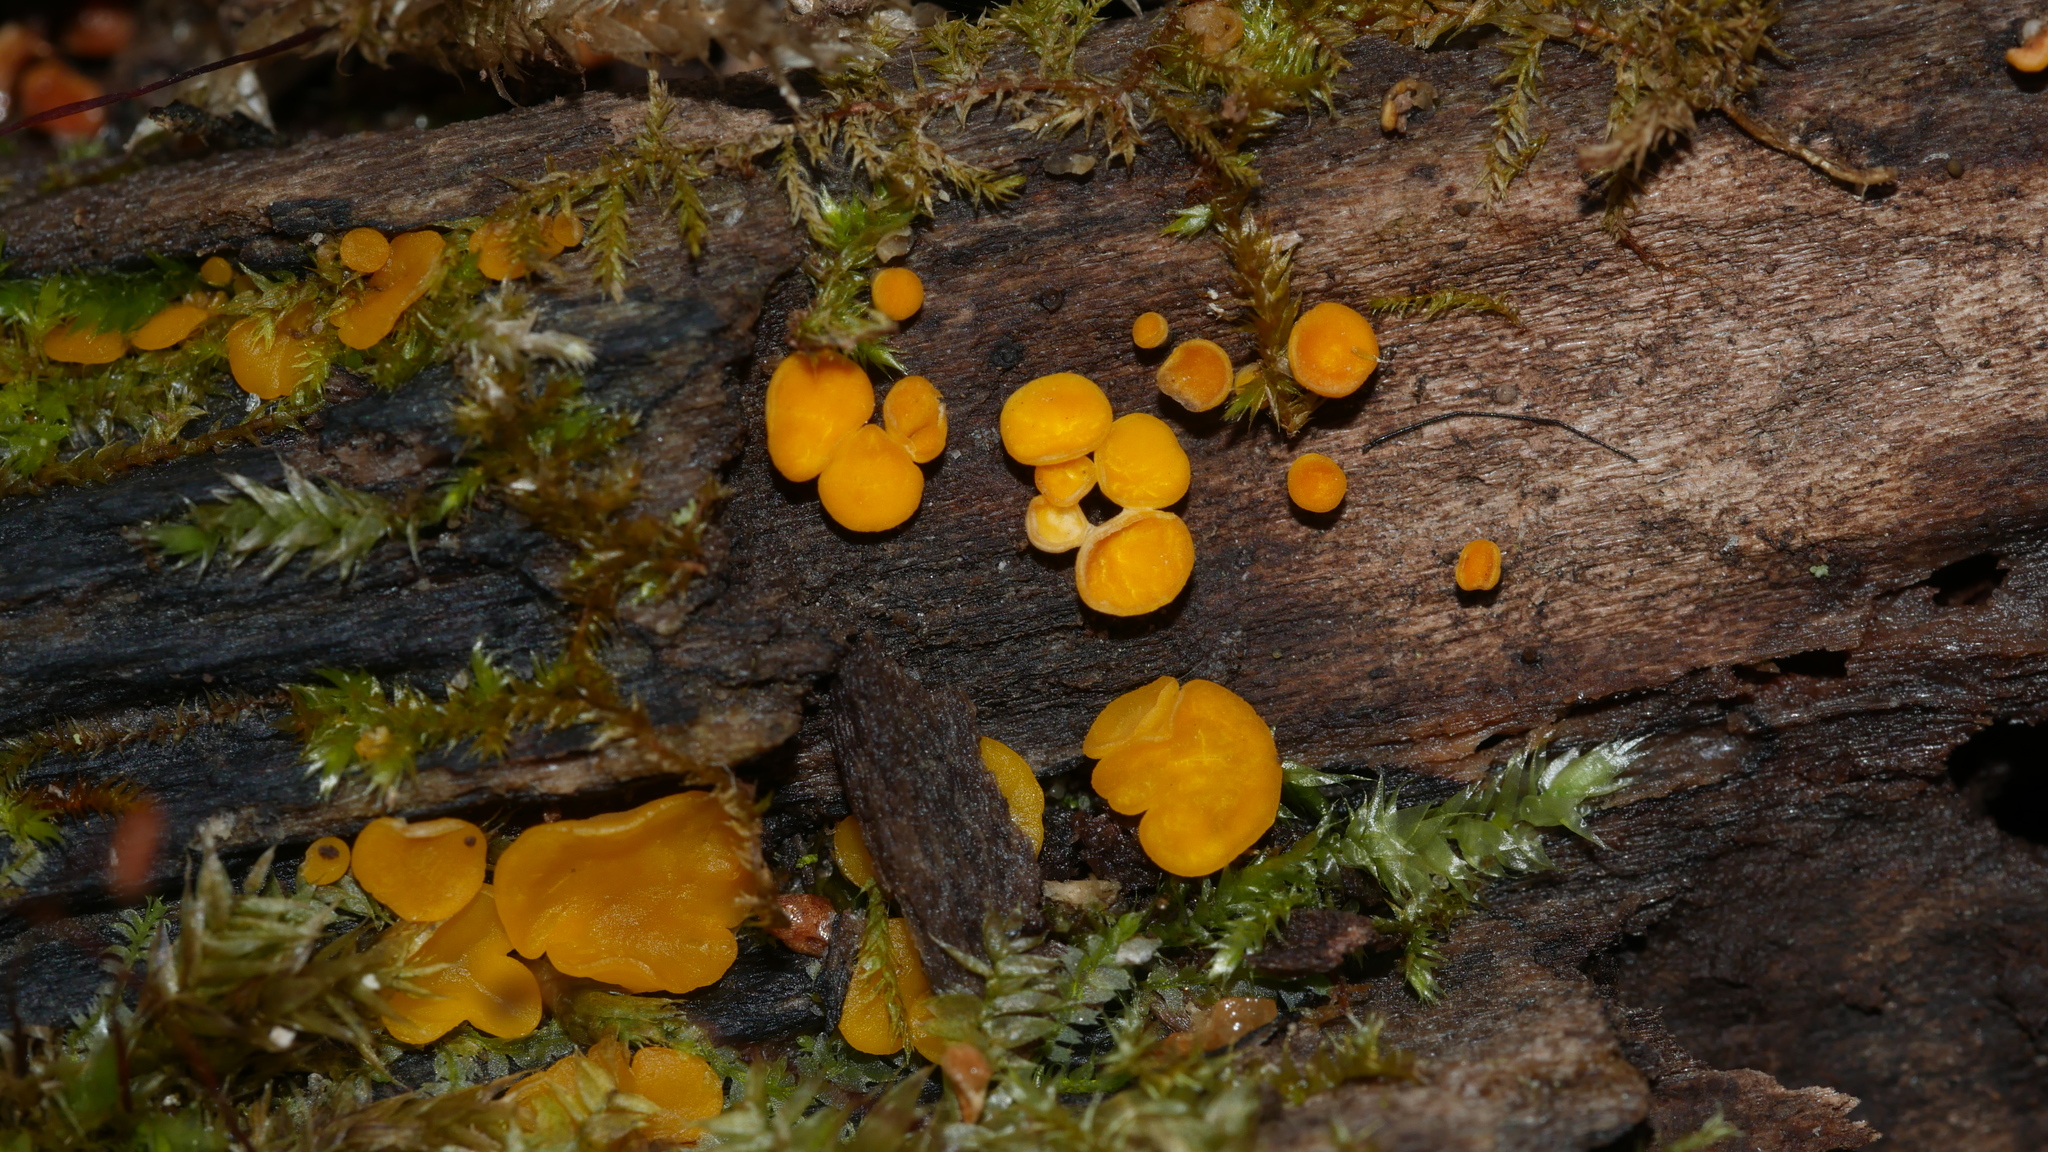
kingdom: Fungi
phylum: Ascomycota
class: Leotiomycetes
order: Helotiales
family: Pezizellaceae
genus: Calycina
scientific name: Calycina citrina
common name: Yellow fairy cups
